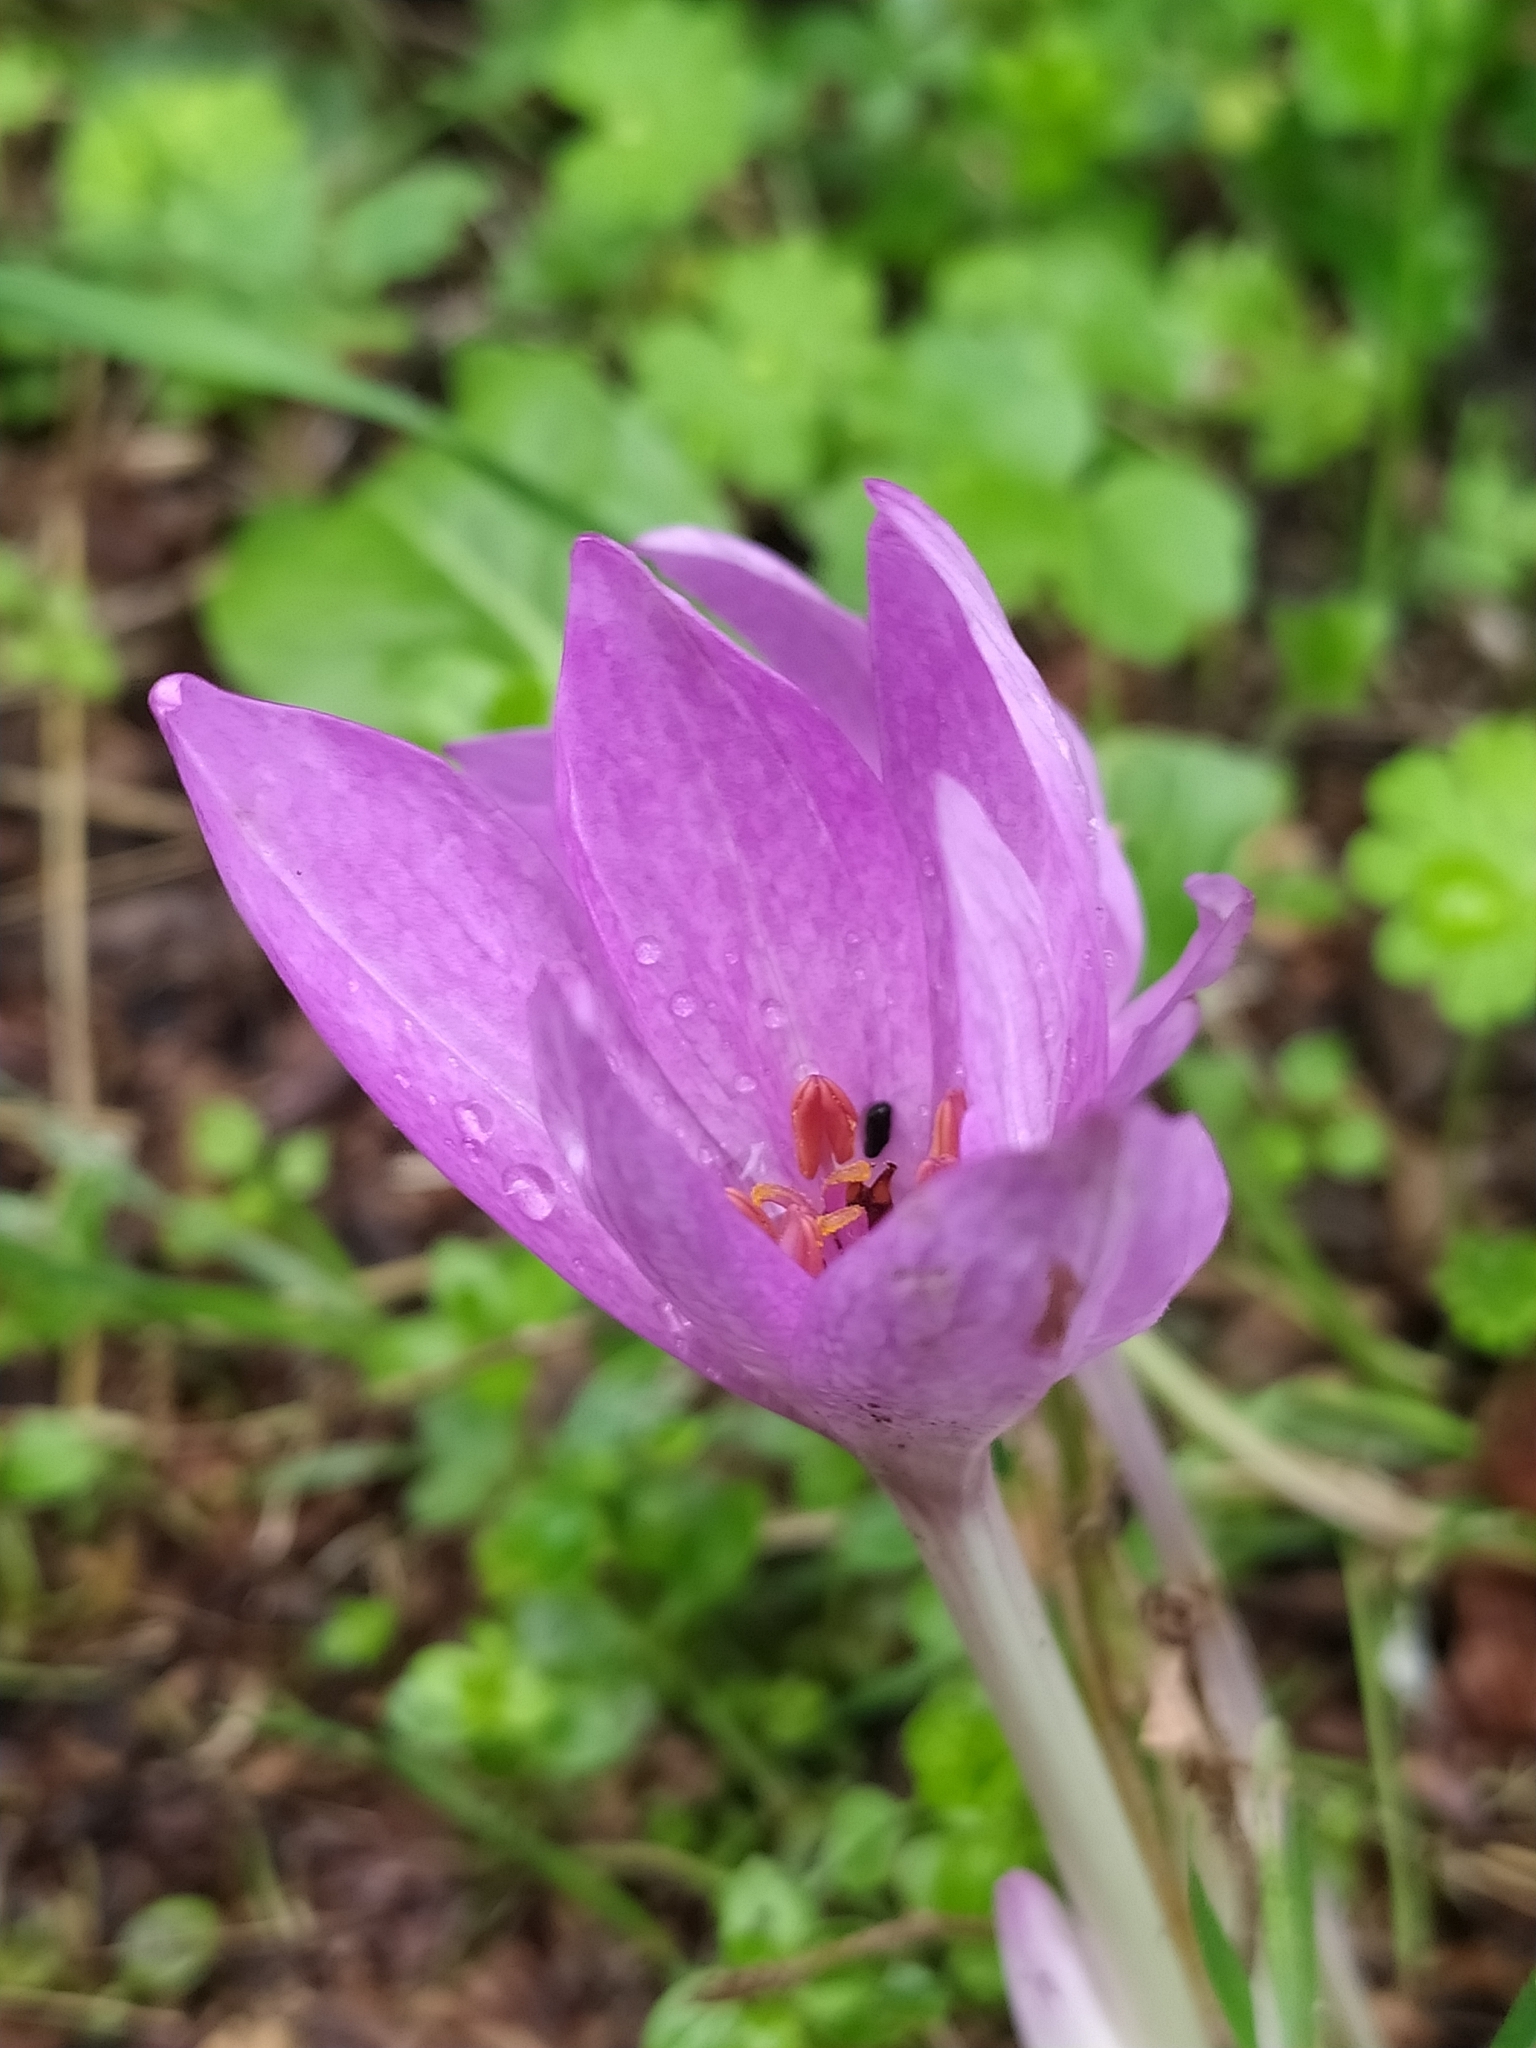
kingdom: Plantae
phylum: Tracheophyta
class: Liliopsida
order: Liliales
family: Colchicaceae
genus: Colchicum
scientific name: Colchicum lusitanum
